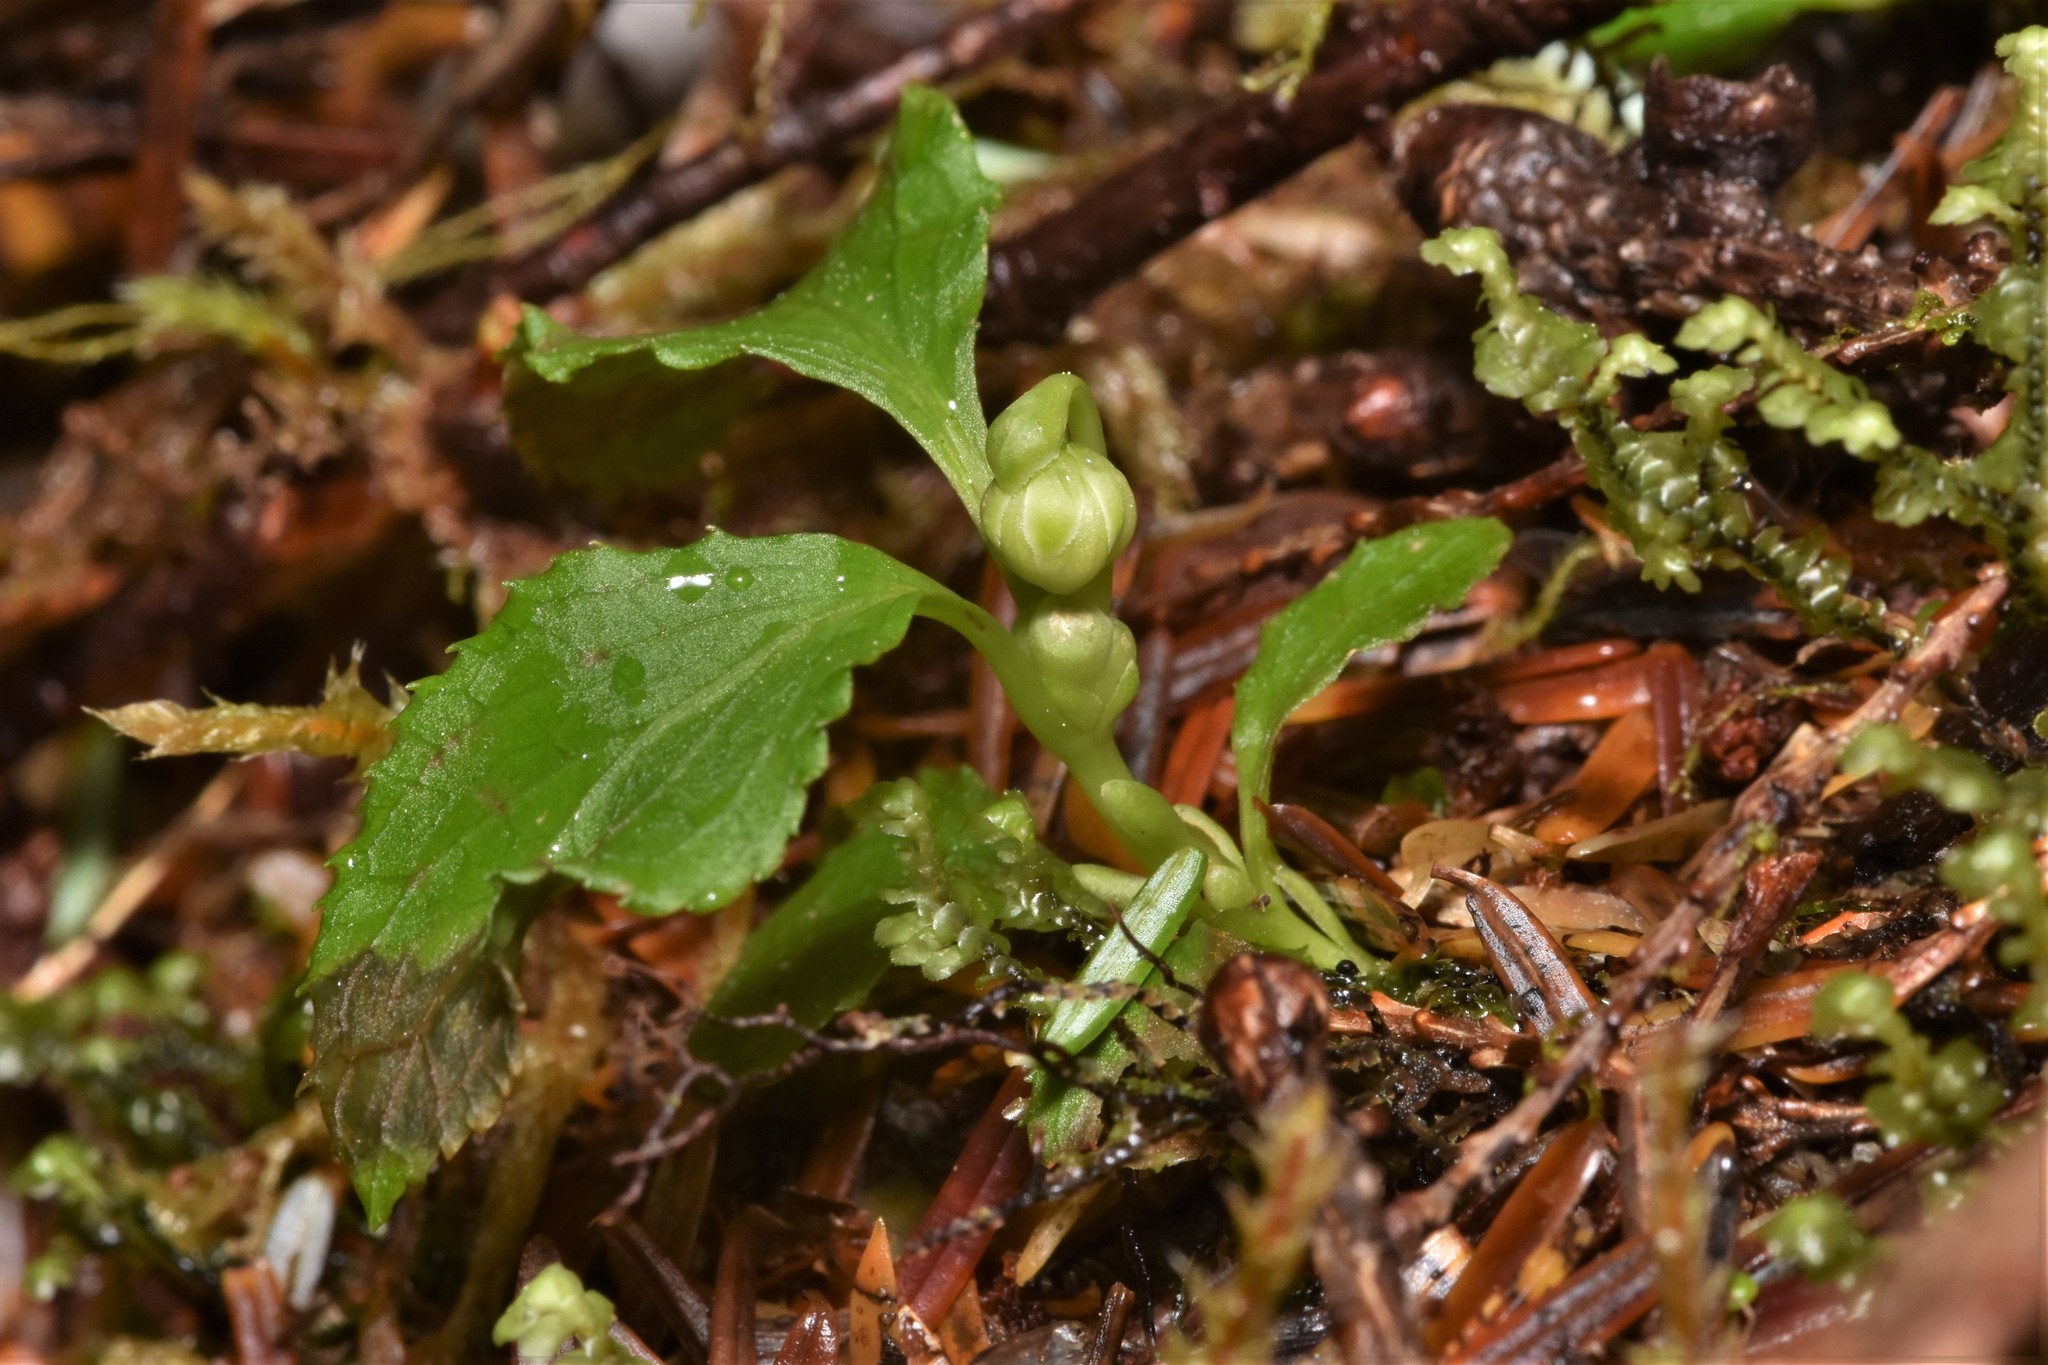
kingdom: Plantae
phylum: Tracheophyta
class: Magnoliopsida
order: Ericales
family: Ericaceae
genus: Moneses
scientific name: Moneses uniflora
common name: One-flowered wintergreen
